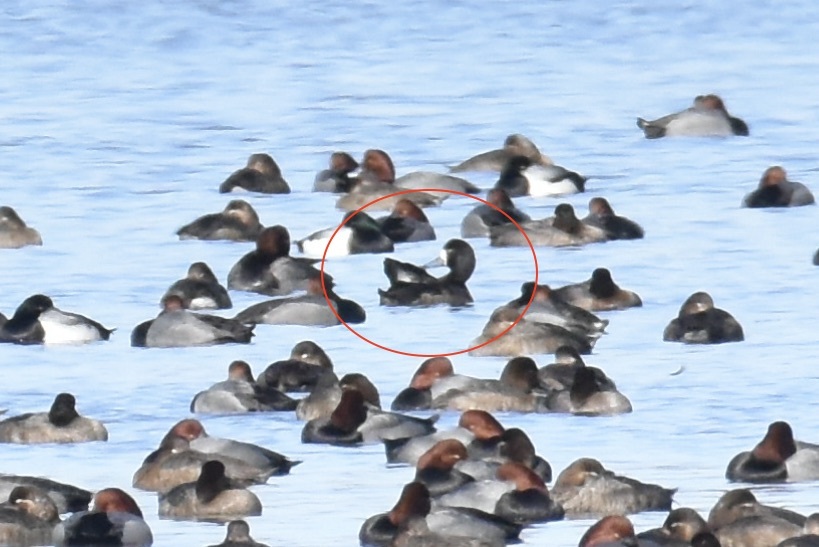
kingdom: Animalia
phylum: Chordata
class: Aves
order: Anseriformes
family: Anatidae
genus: Aythya
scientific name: Aythya marila
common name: Greater scaup
